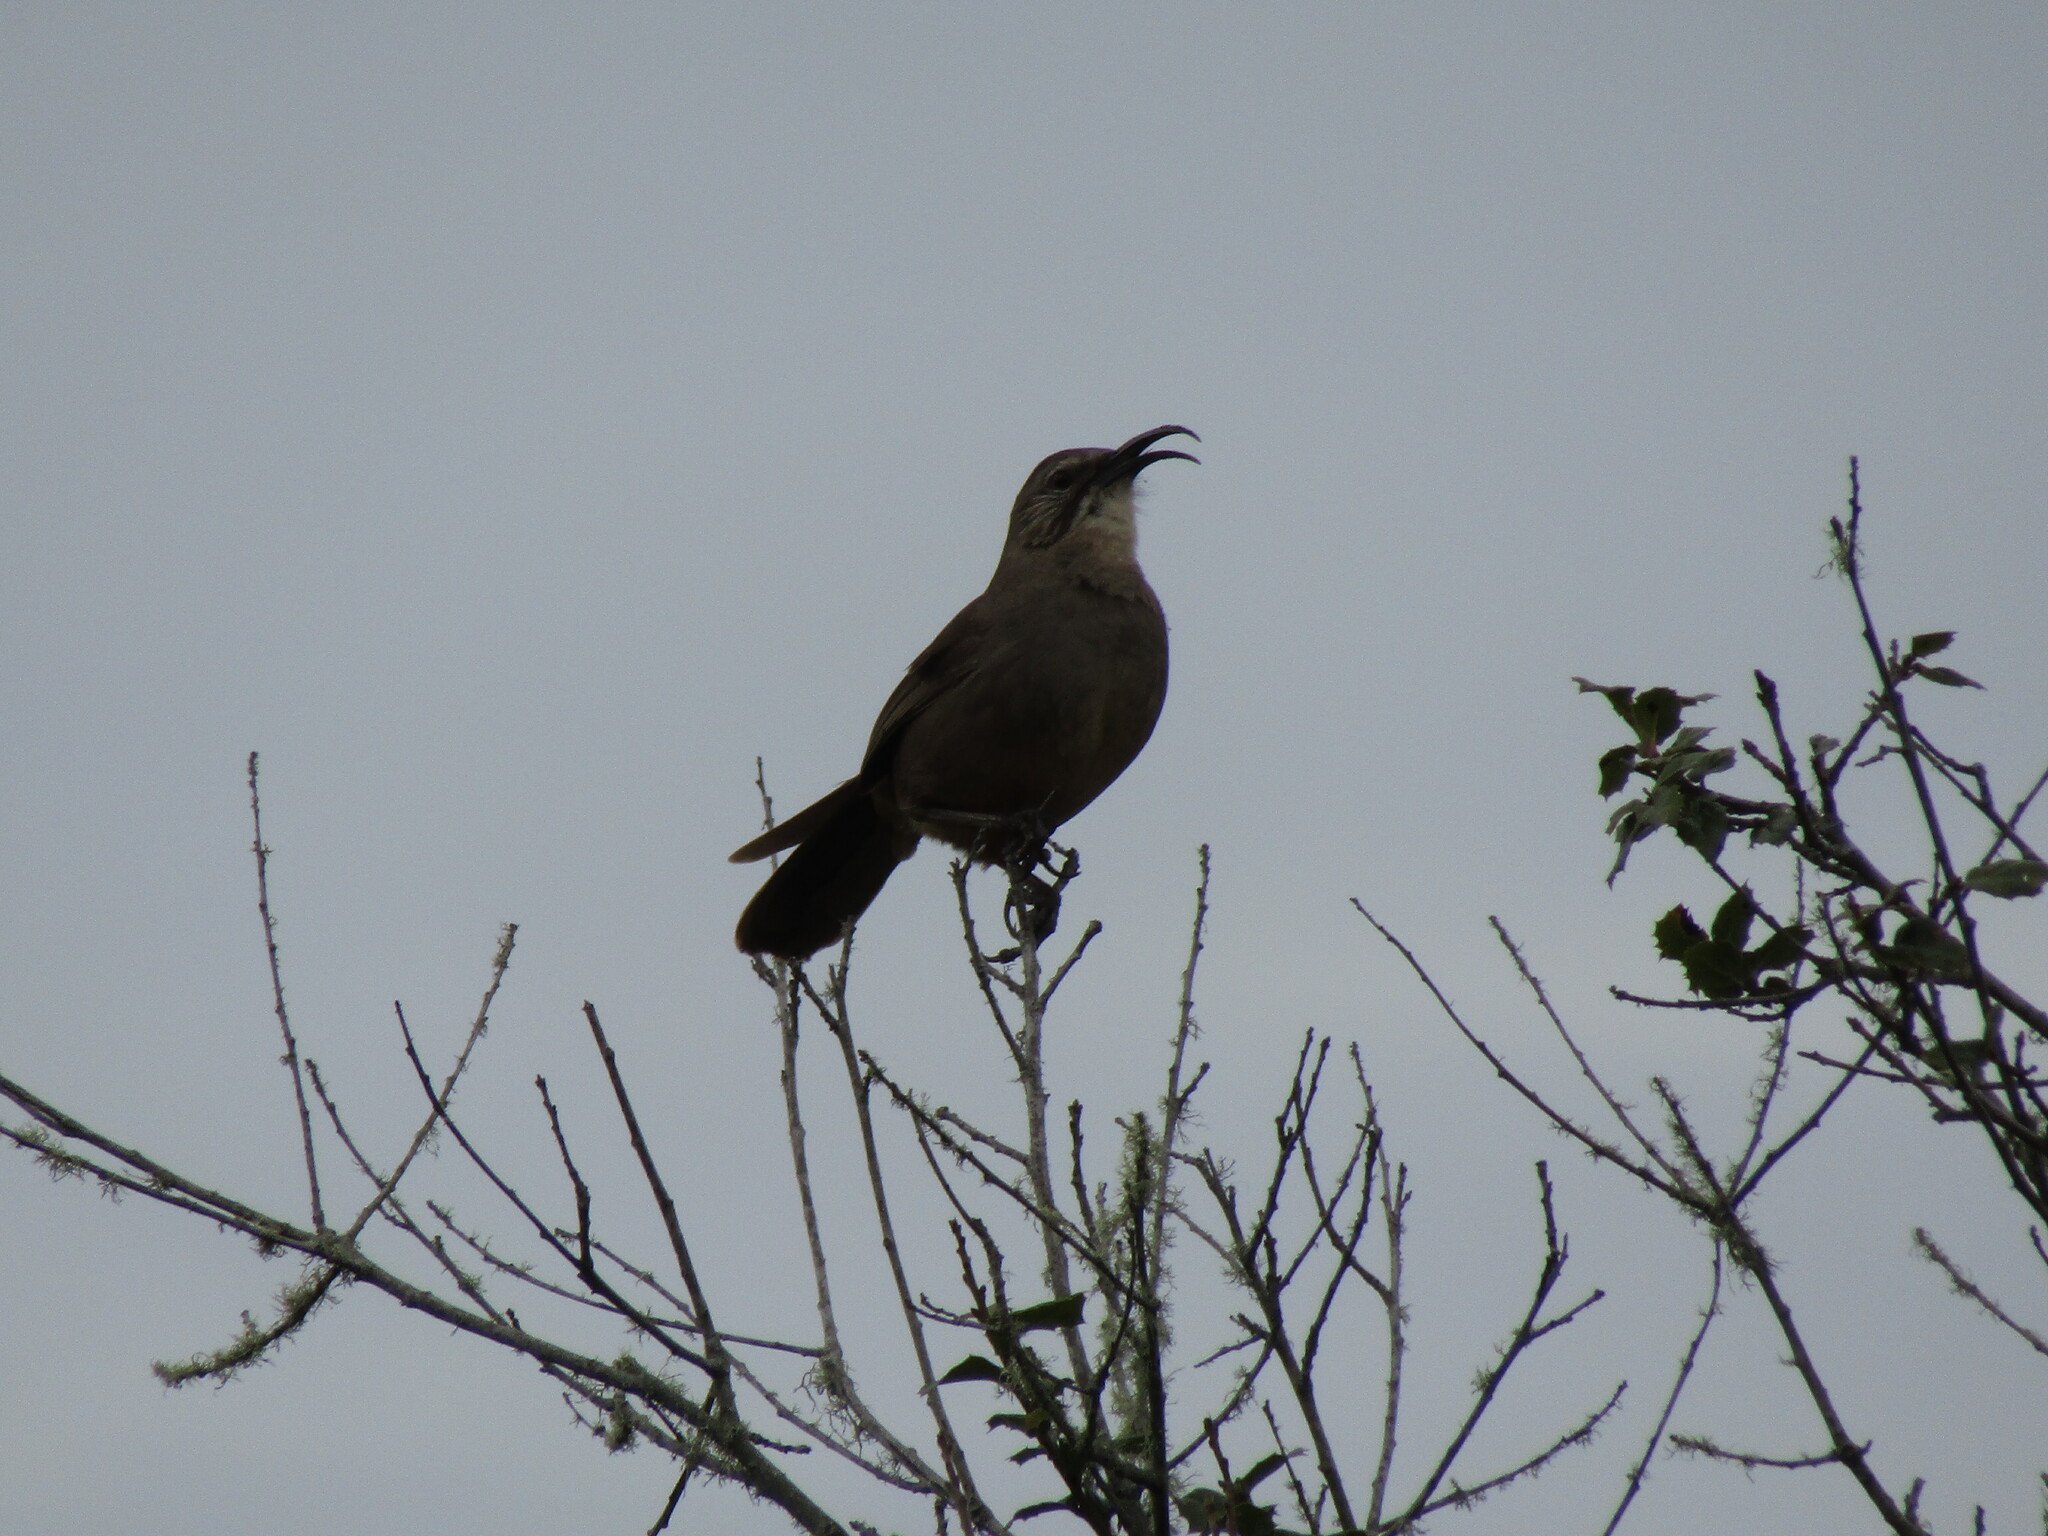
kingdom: Animalia
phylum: Chordata
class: Aves
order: Passeriformes
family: Mimidae
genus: Toxostoma
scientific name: Toxostoma redivivum
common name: California thrasher
